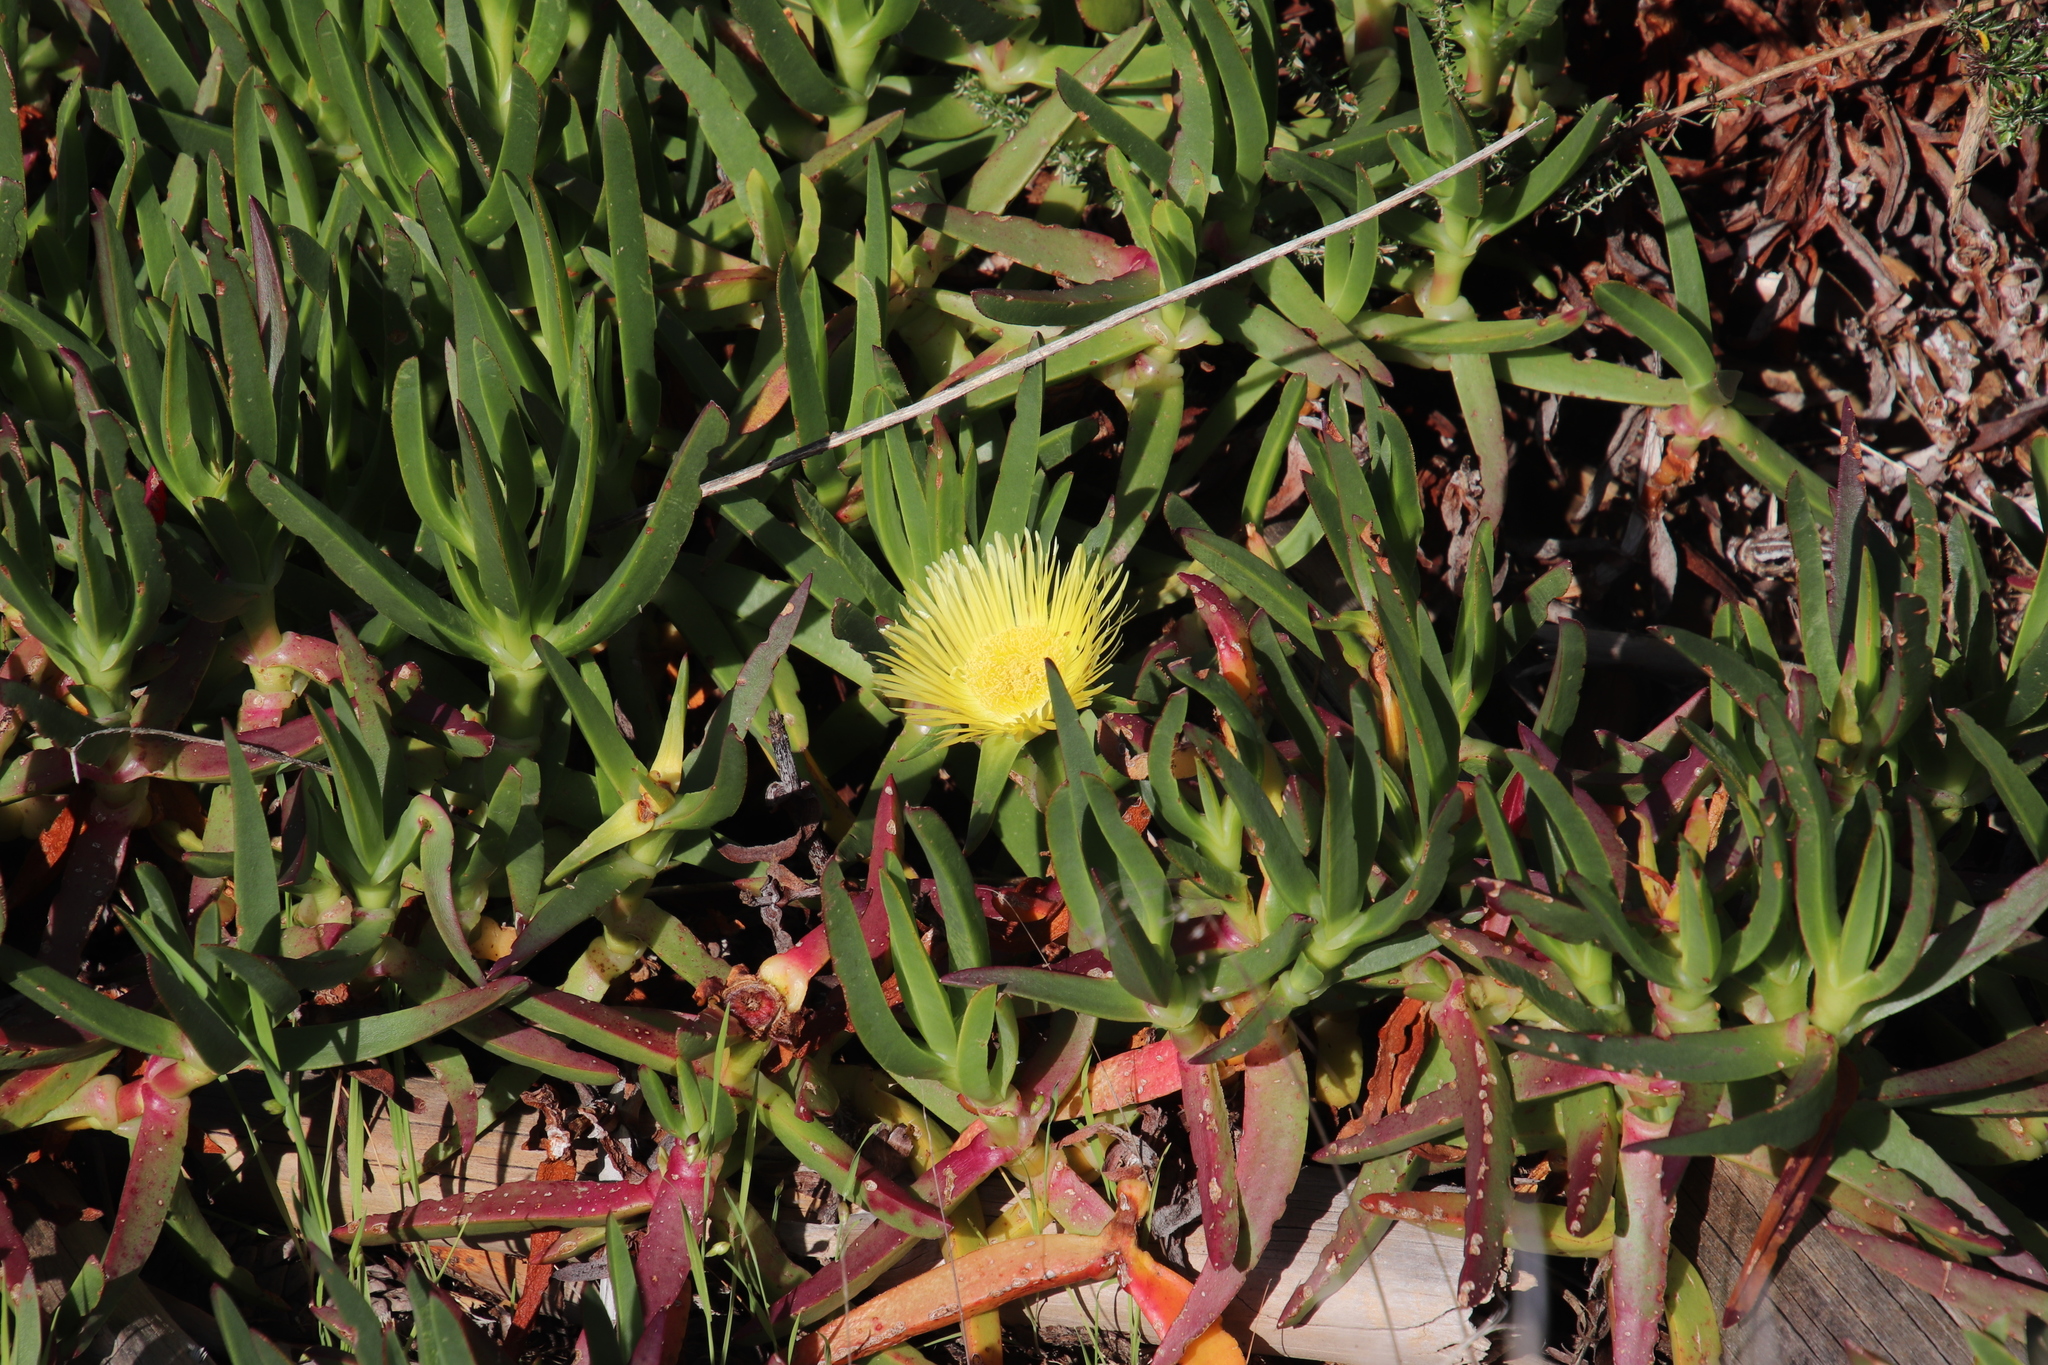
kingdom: Plantae
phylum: Tracheophyta
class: Magnoliopsida
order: Caryophyllales
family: Aizoaceae
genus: Carpobrotus
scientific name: Carpobrotus edulis
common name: Hottentot-fig
